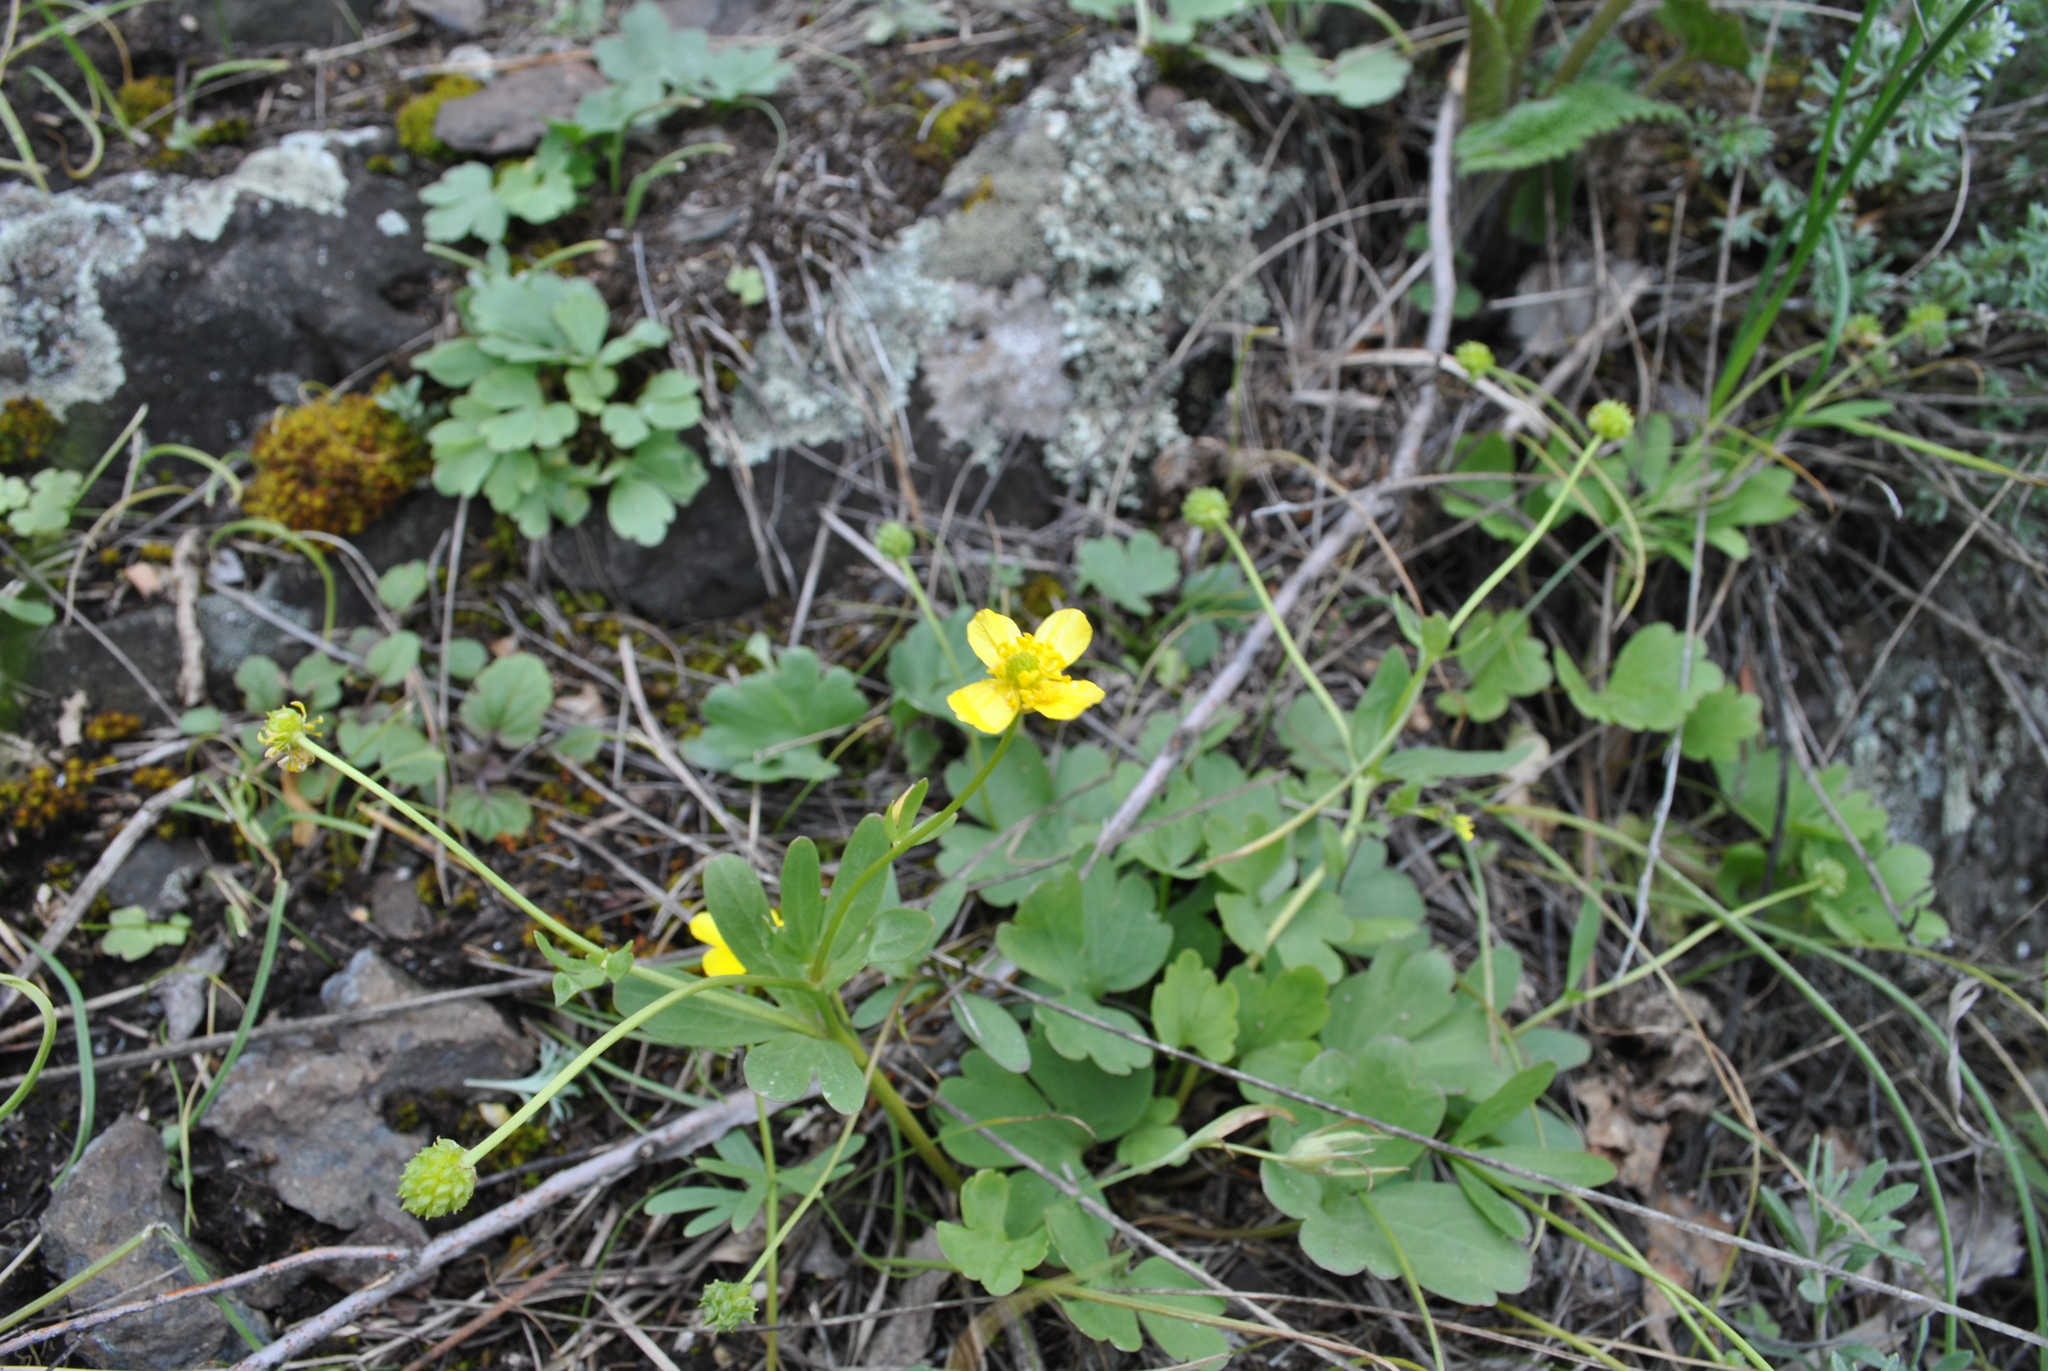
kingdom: Plantae
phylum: Tracheophyta
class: Magnoliopsida
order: Ranunculales
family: Ranunculaceae
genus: Ranunculus
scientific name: Ranunculus polyrhizos
